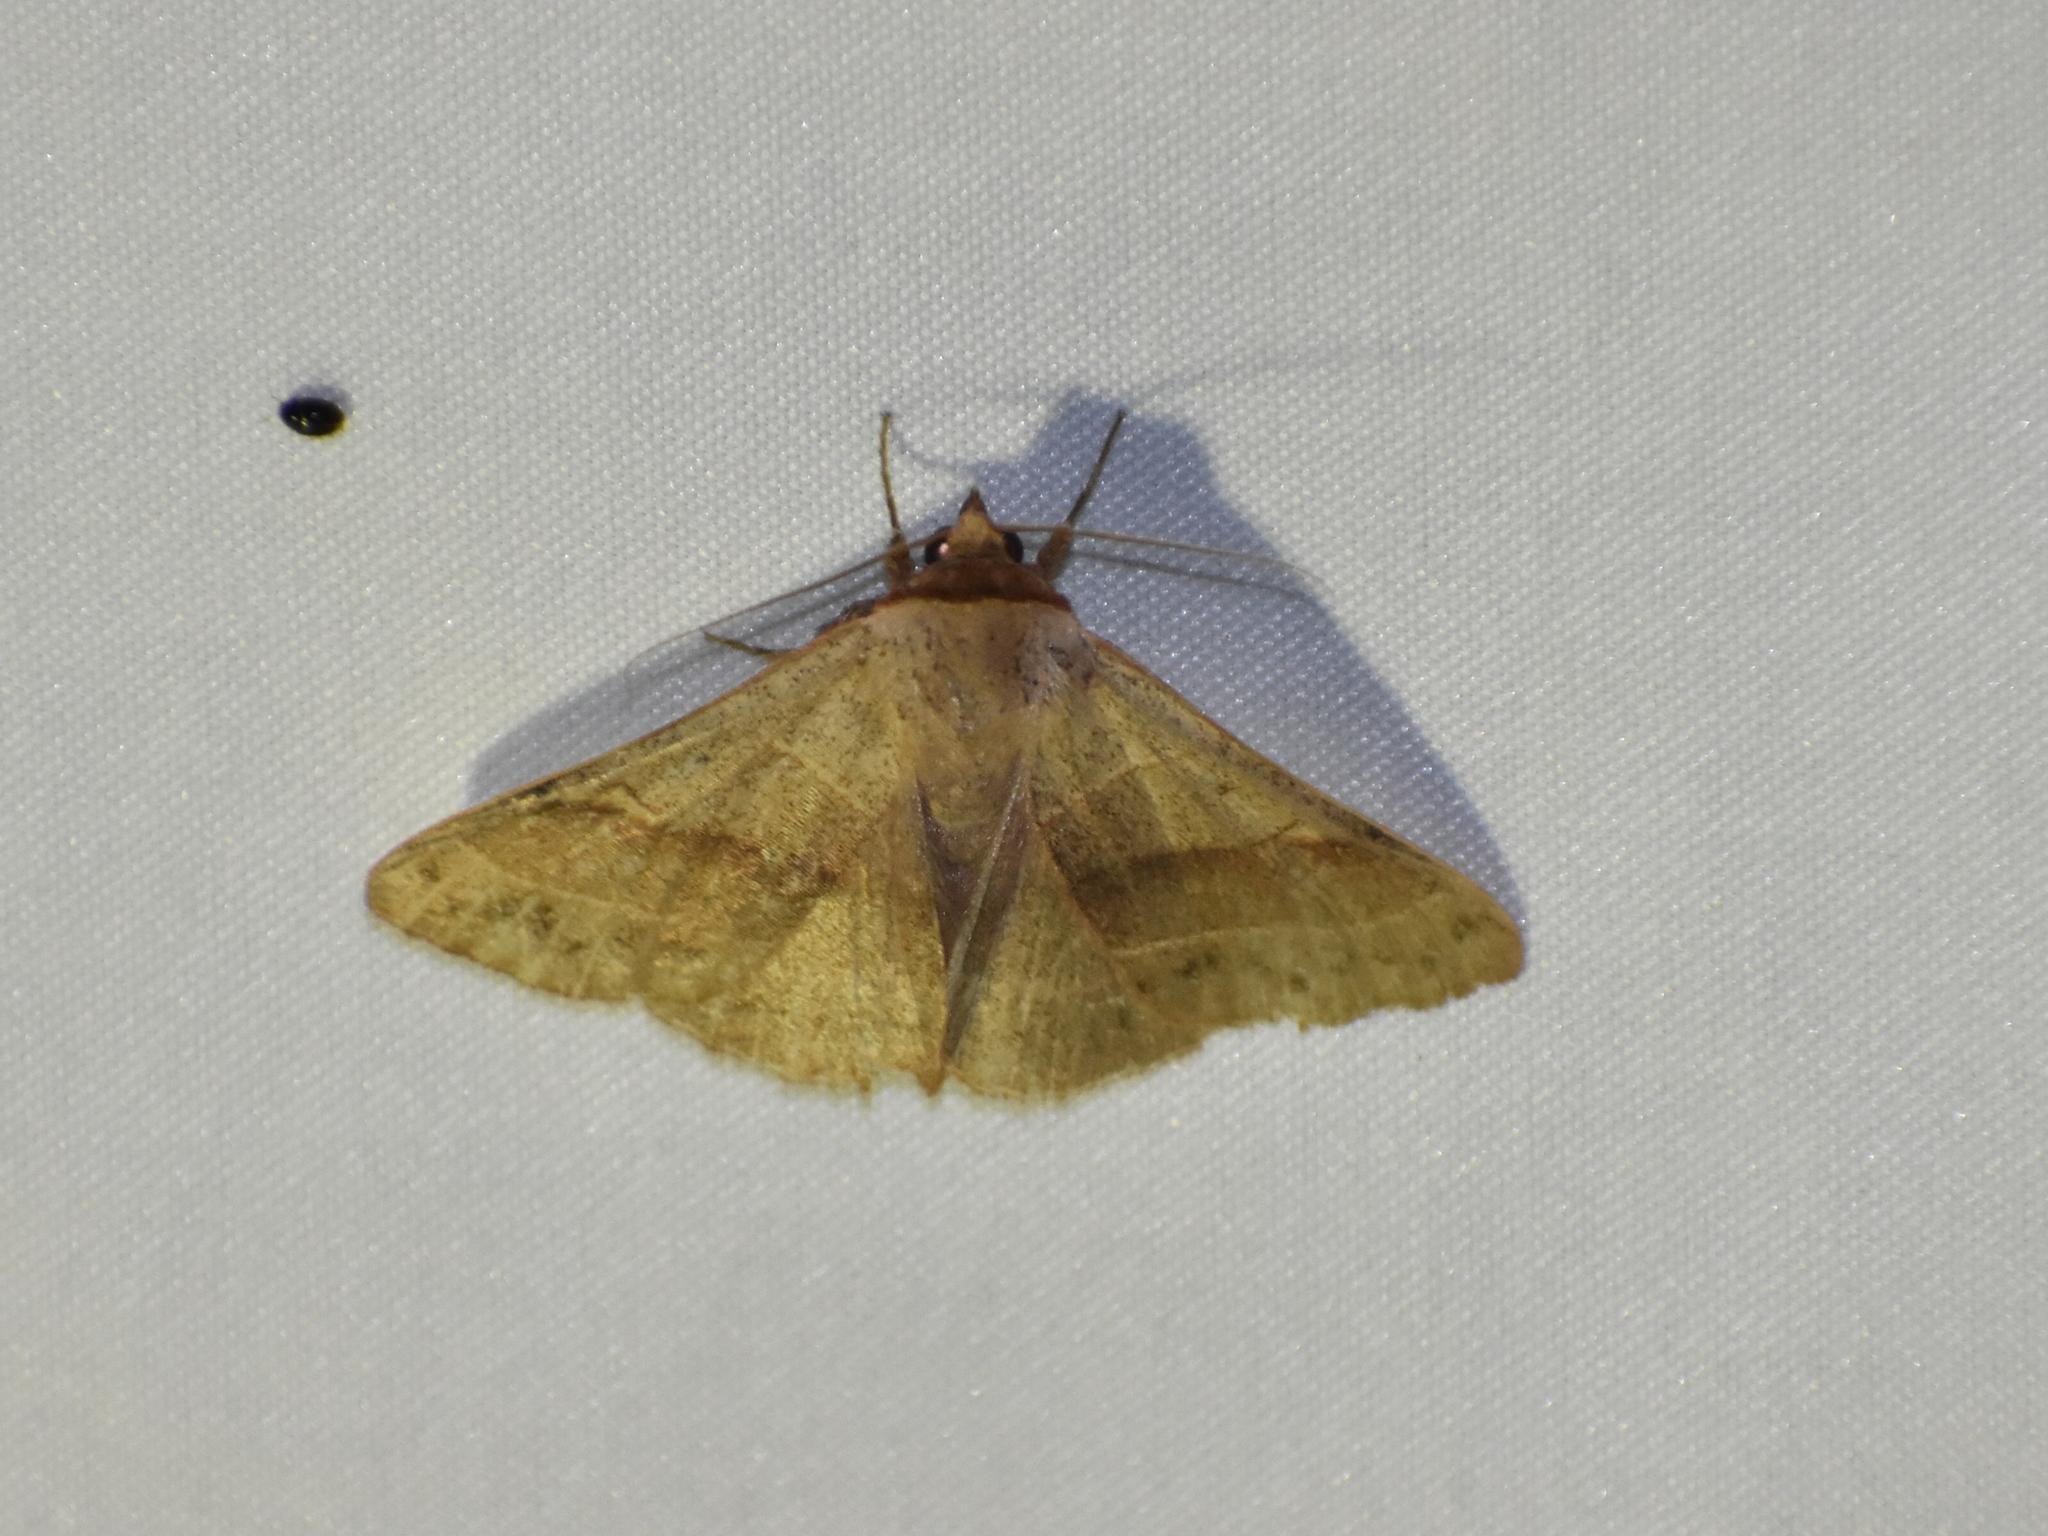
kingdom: Animalia
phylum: Arthropoda
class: Insecta
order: Lepidoptera
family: Erebidae
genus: Panopoda
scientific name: Panopoda rufimargo
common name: Red-lined panopoda moth
